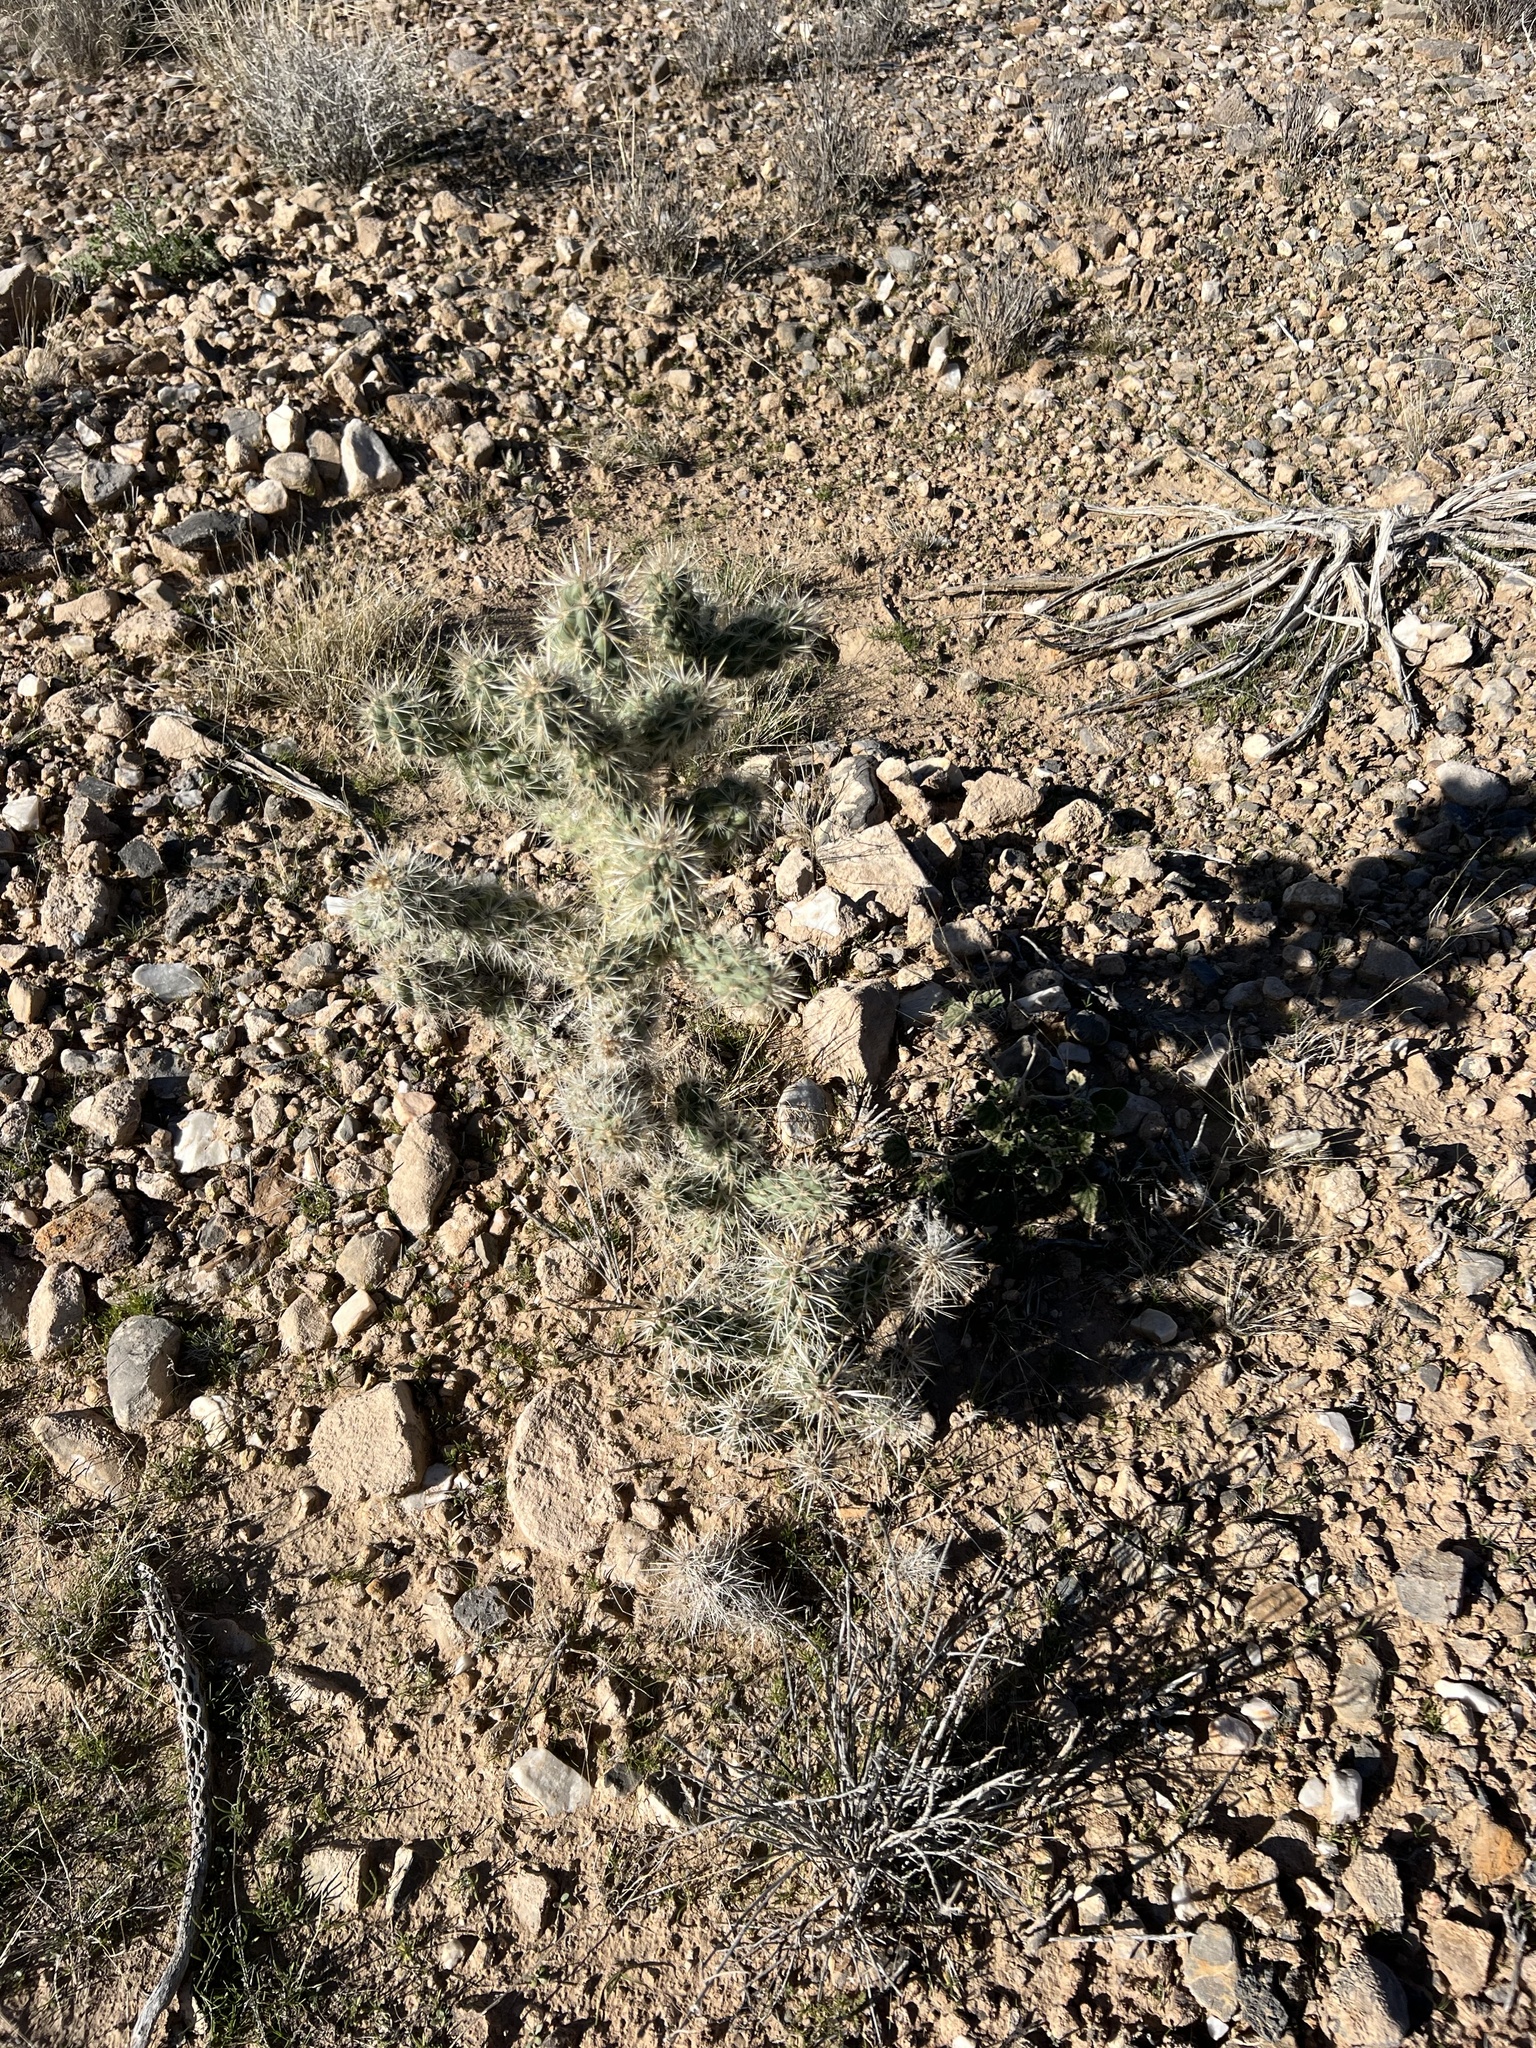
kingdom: Plantae
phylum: Tracheophyta
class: Magnoliopsida
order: Caryophyllales
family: Cactaceae
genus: Cylindropuntia
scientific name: Cylindropuntia echinocarpa
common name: Ground cholla
